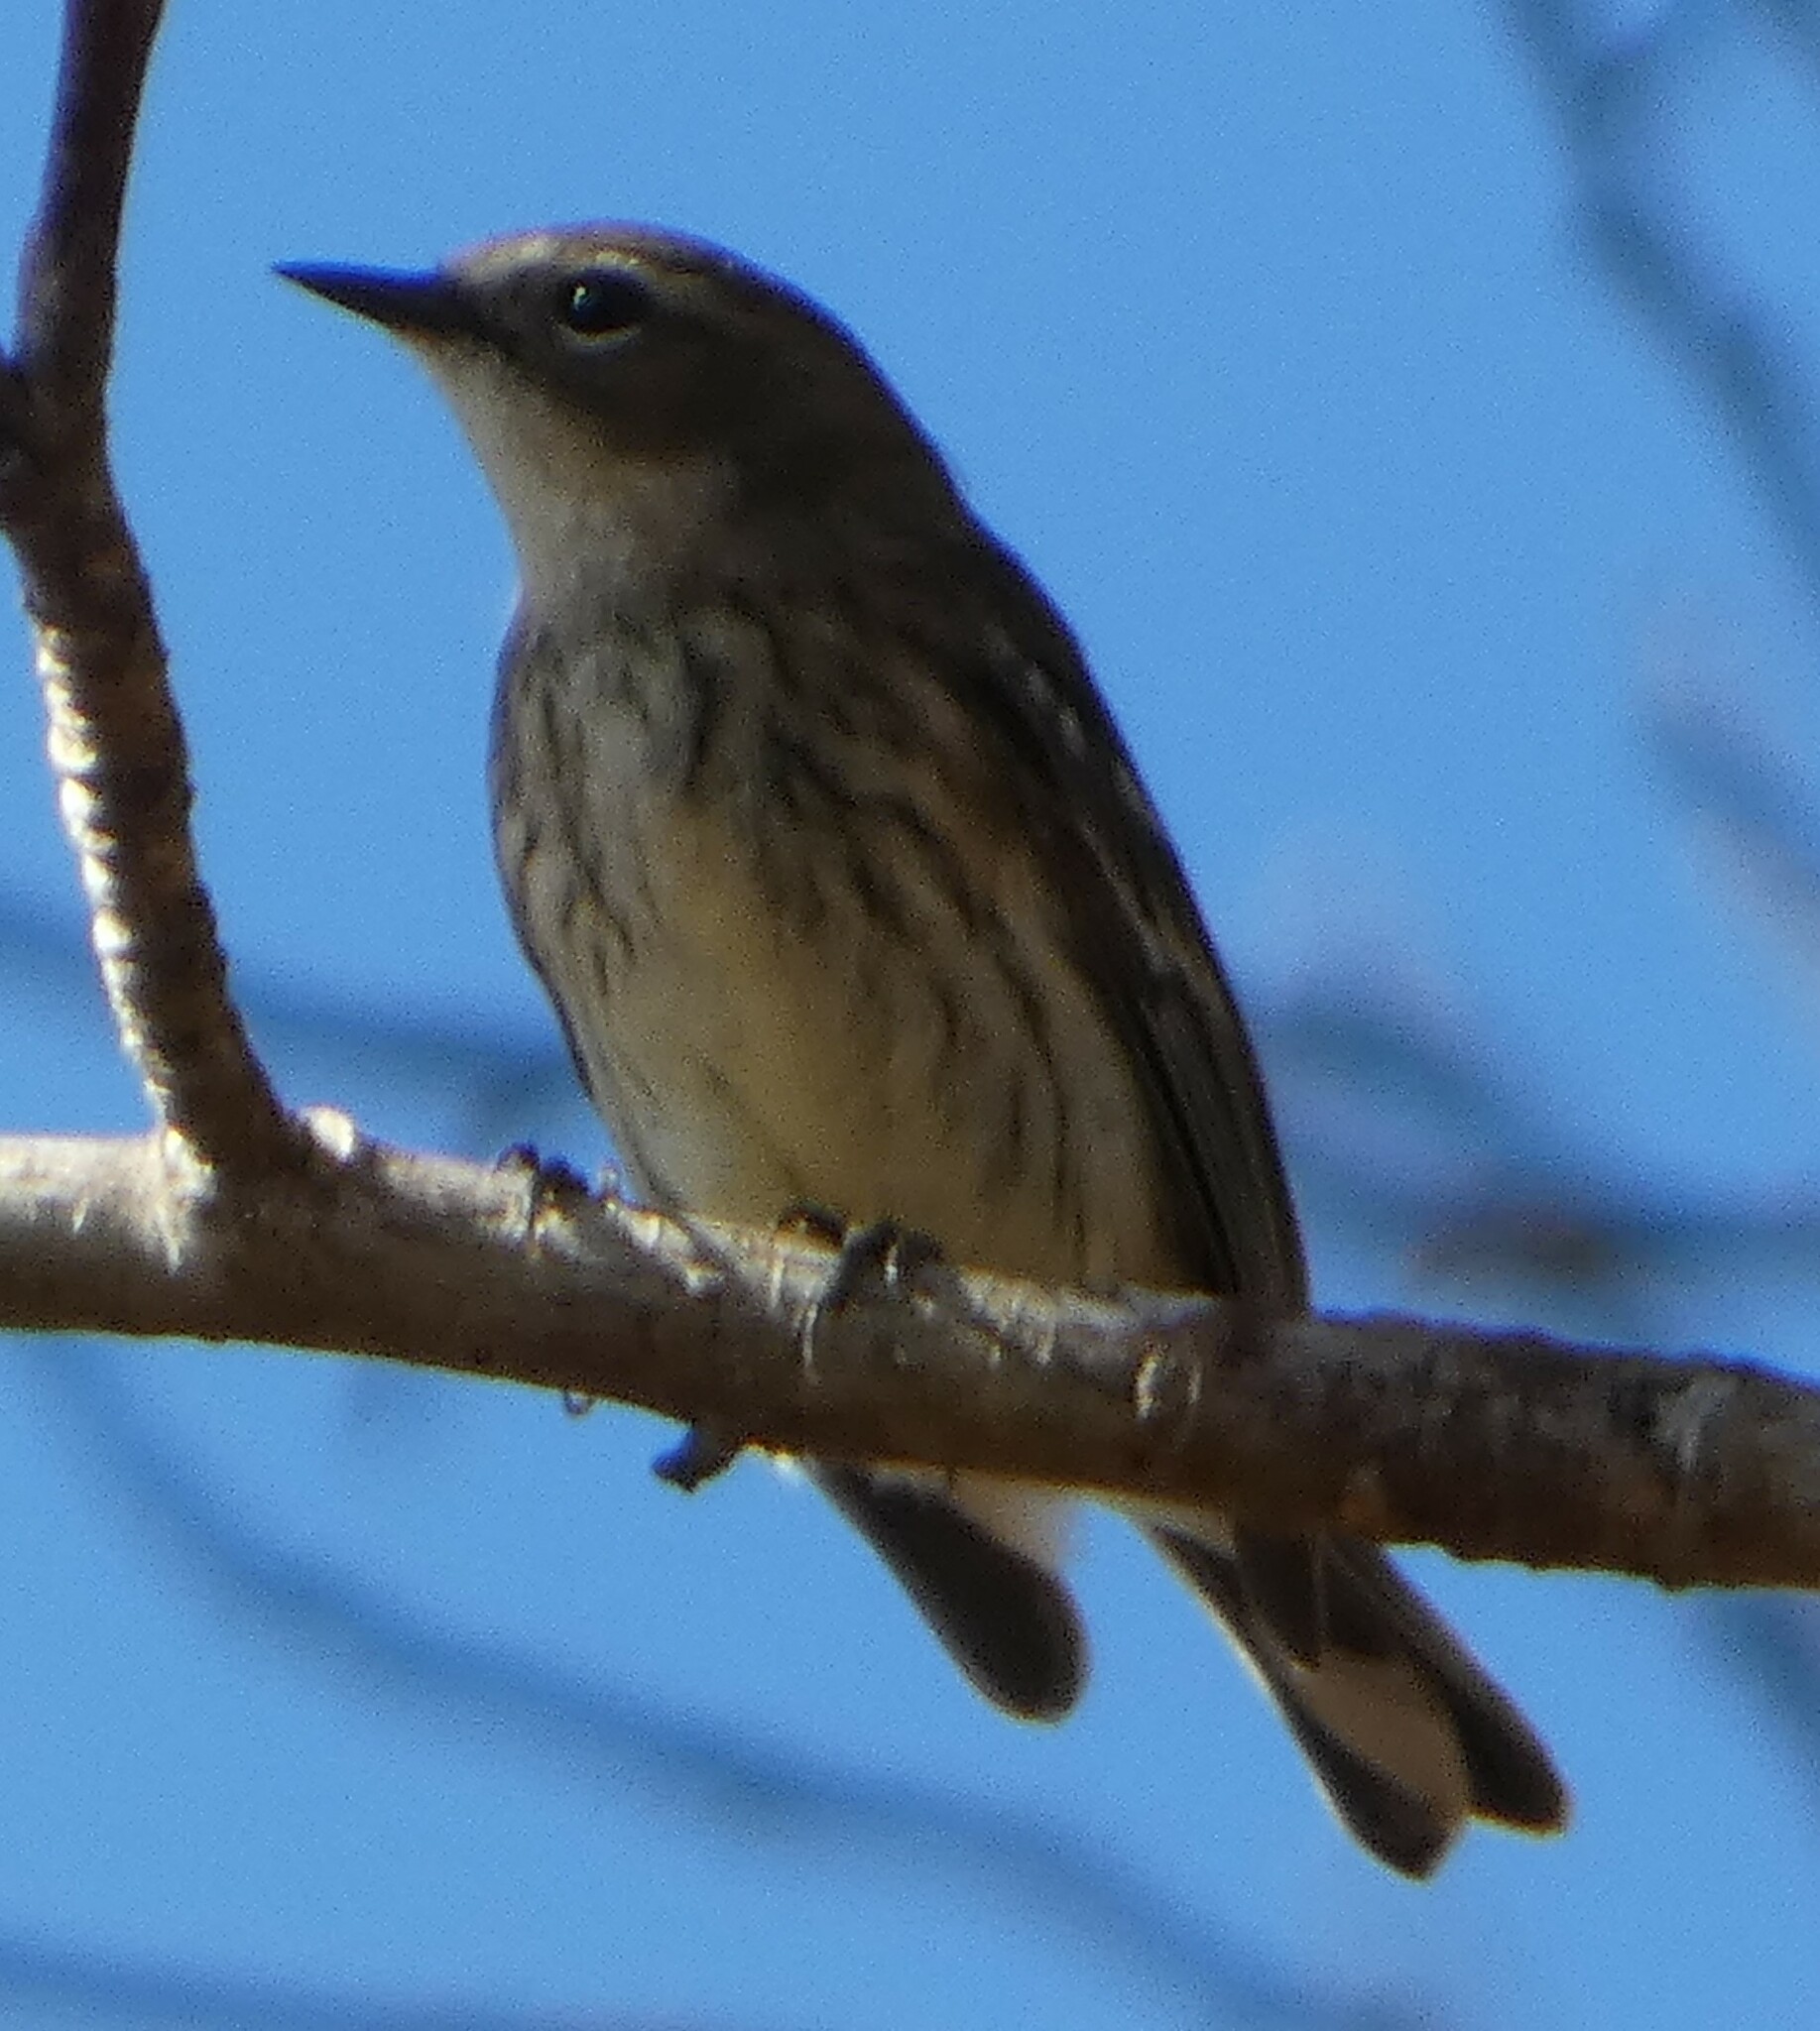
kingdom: Animalia
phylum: Chordata
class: Aves
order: Passeriformes
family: Parulidae
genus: Setophaga
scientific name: Setophaga coronata
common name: Myrtle warbler
